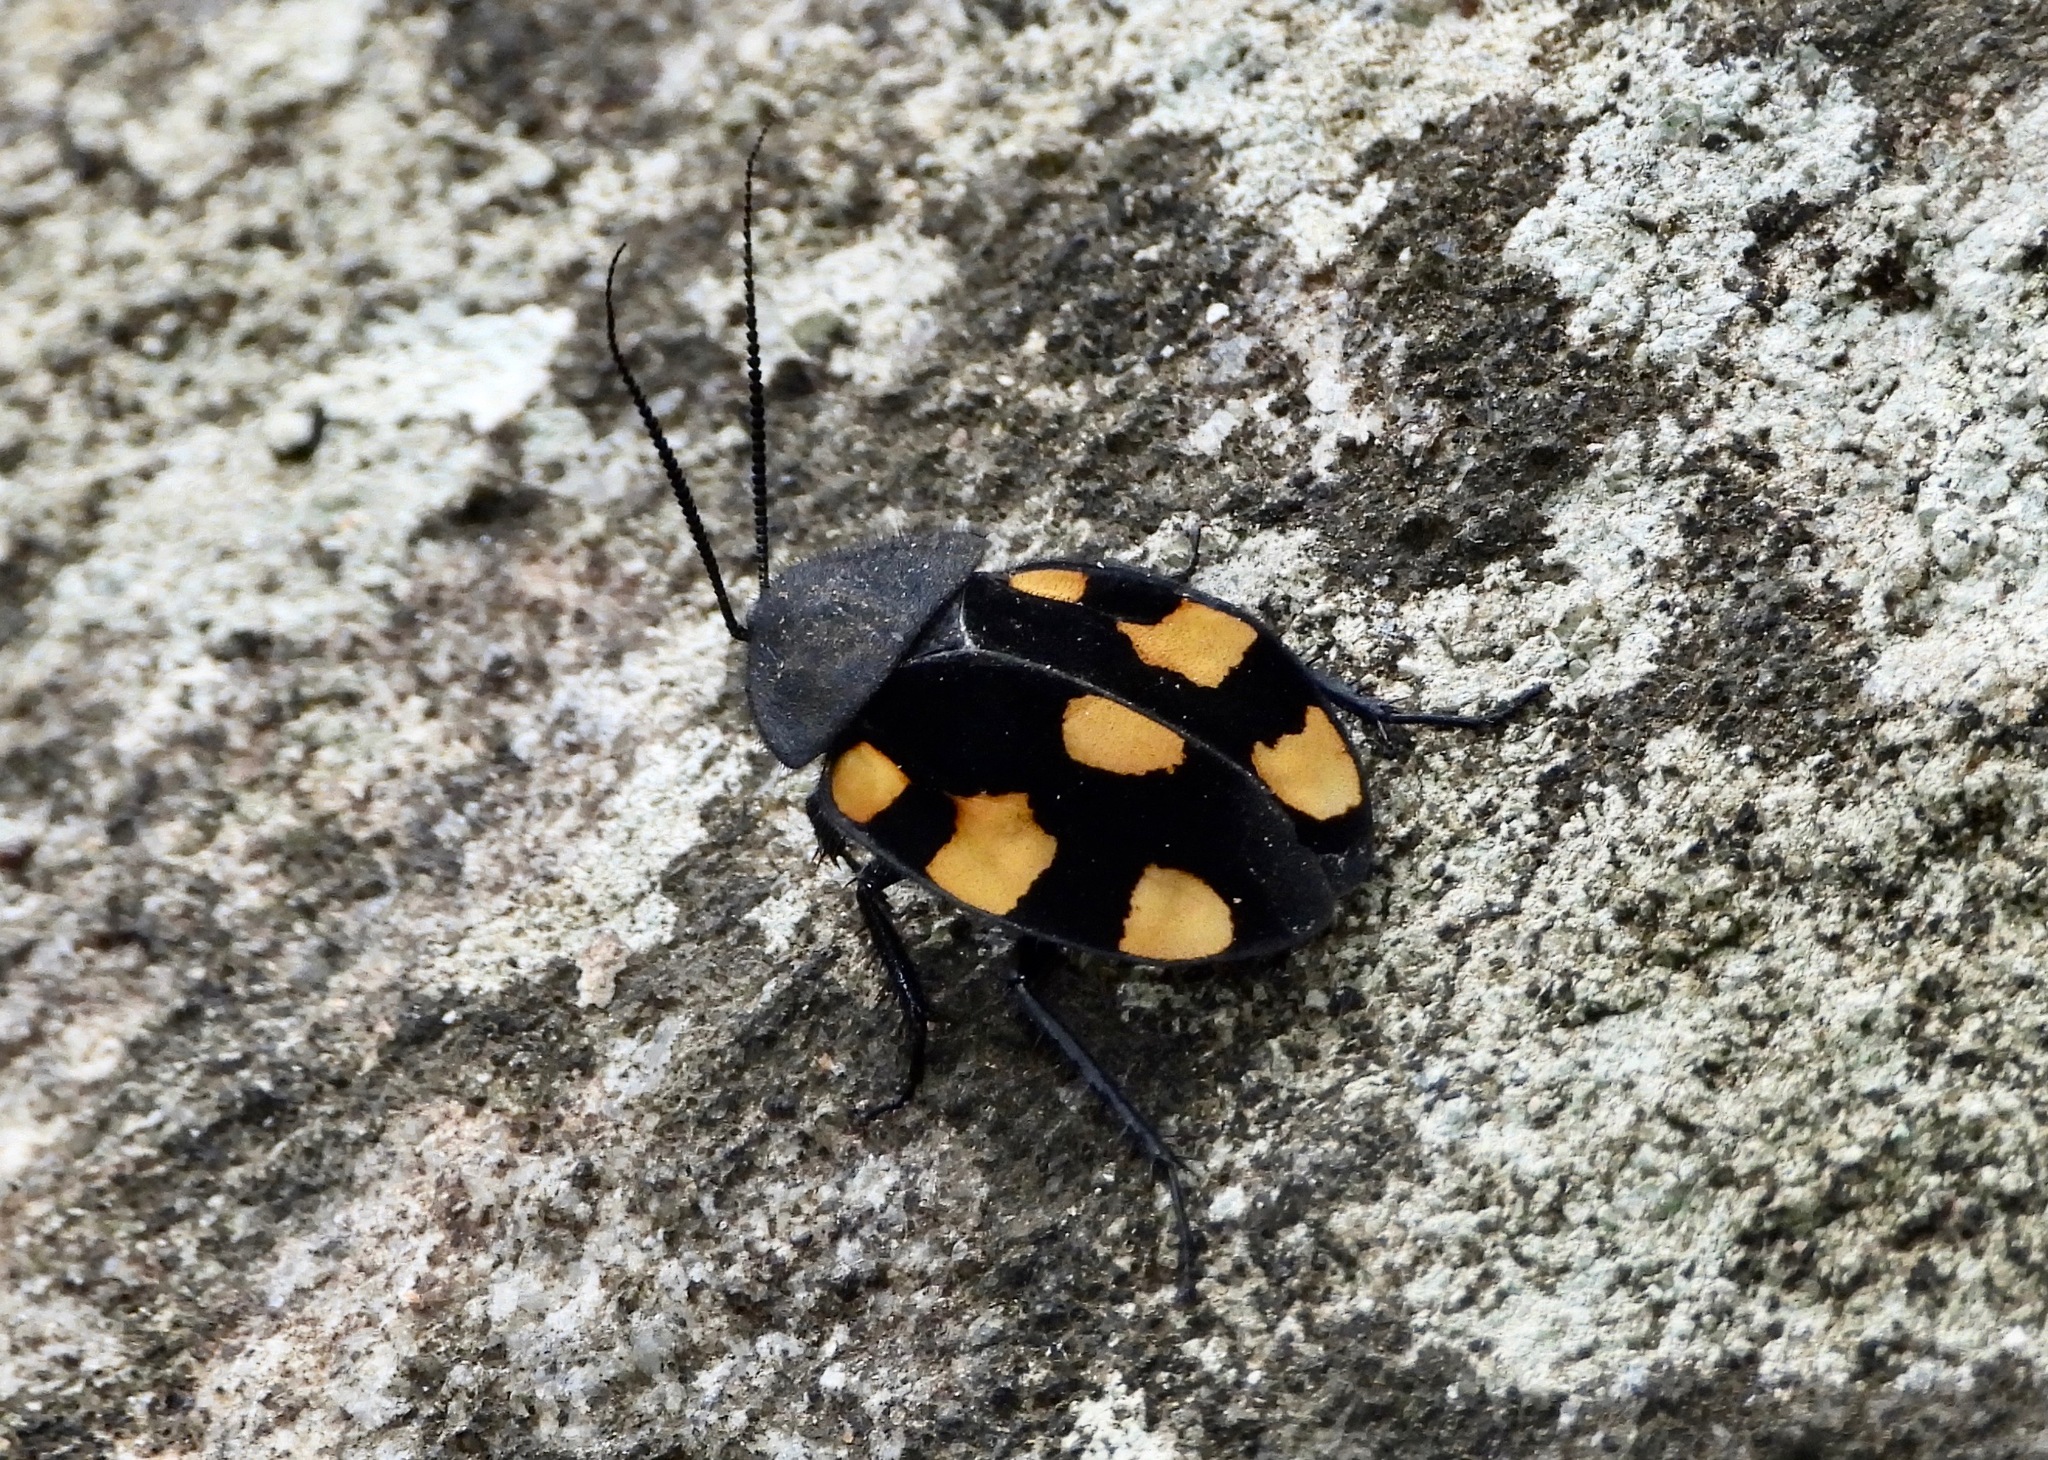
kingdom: Animalia
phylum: Arthropoda
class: Insecta
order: Blattodea
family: Corydiidae
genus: Therea
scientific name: Therea regularis
